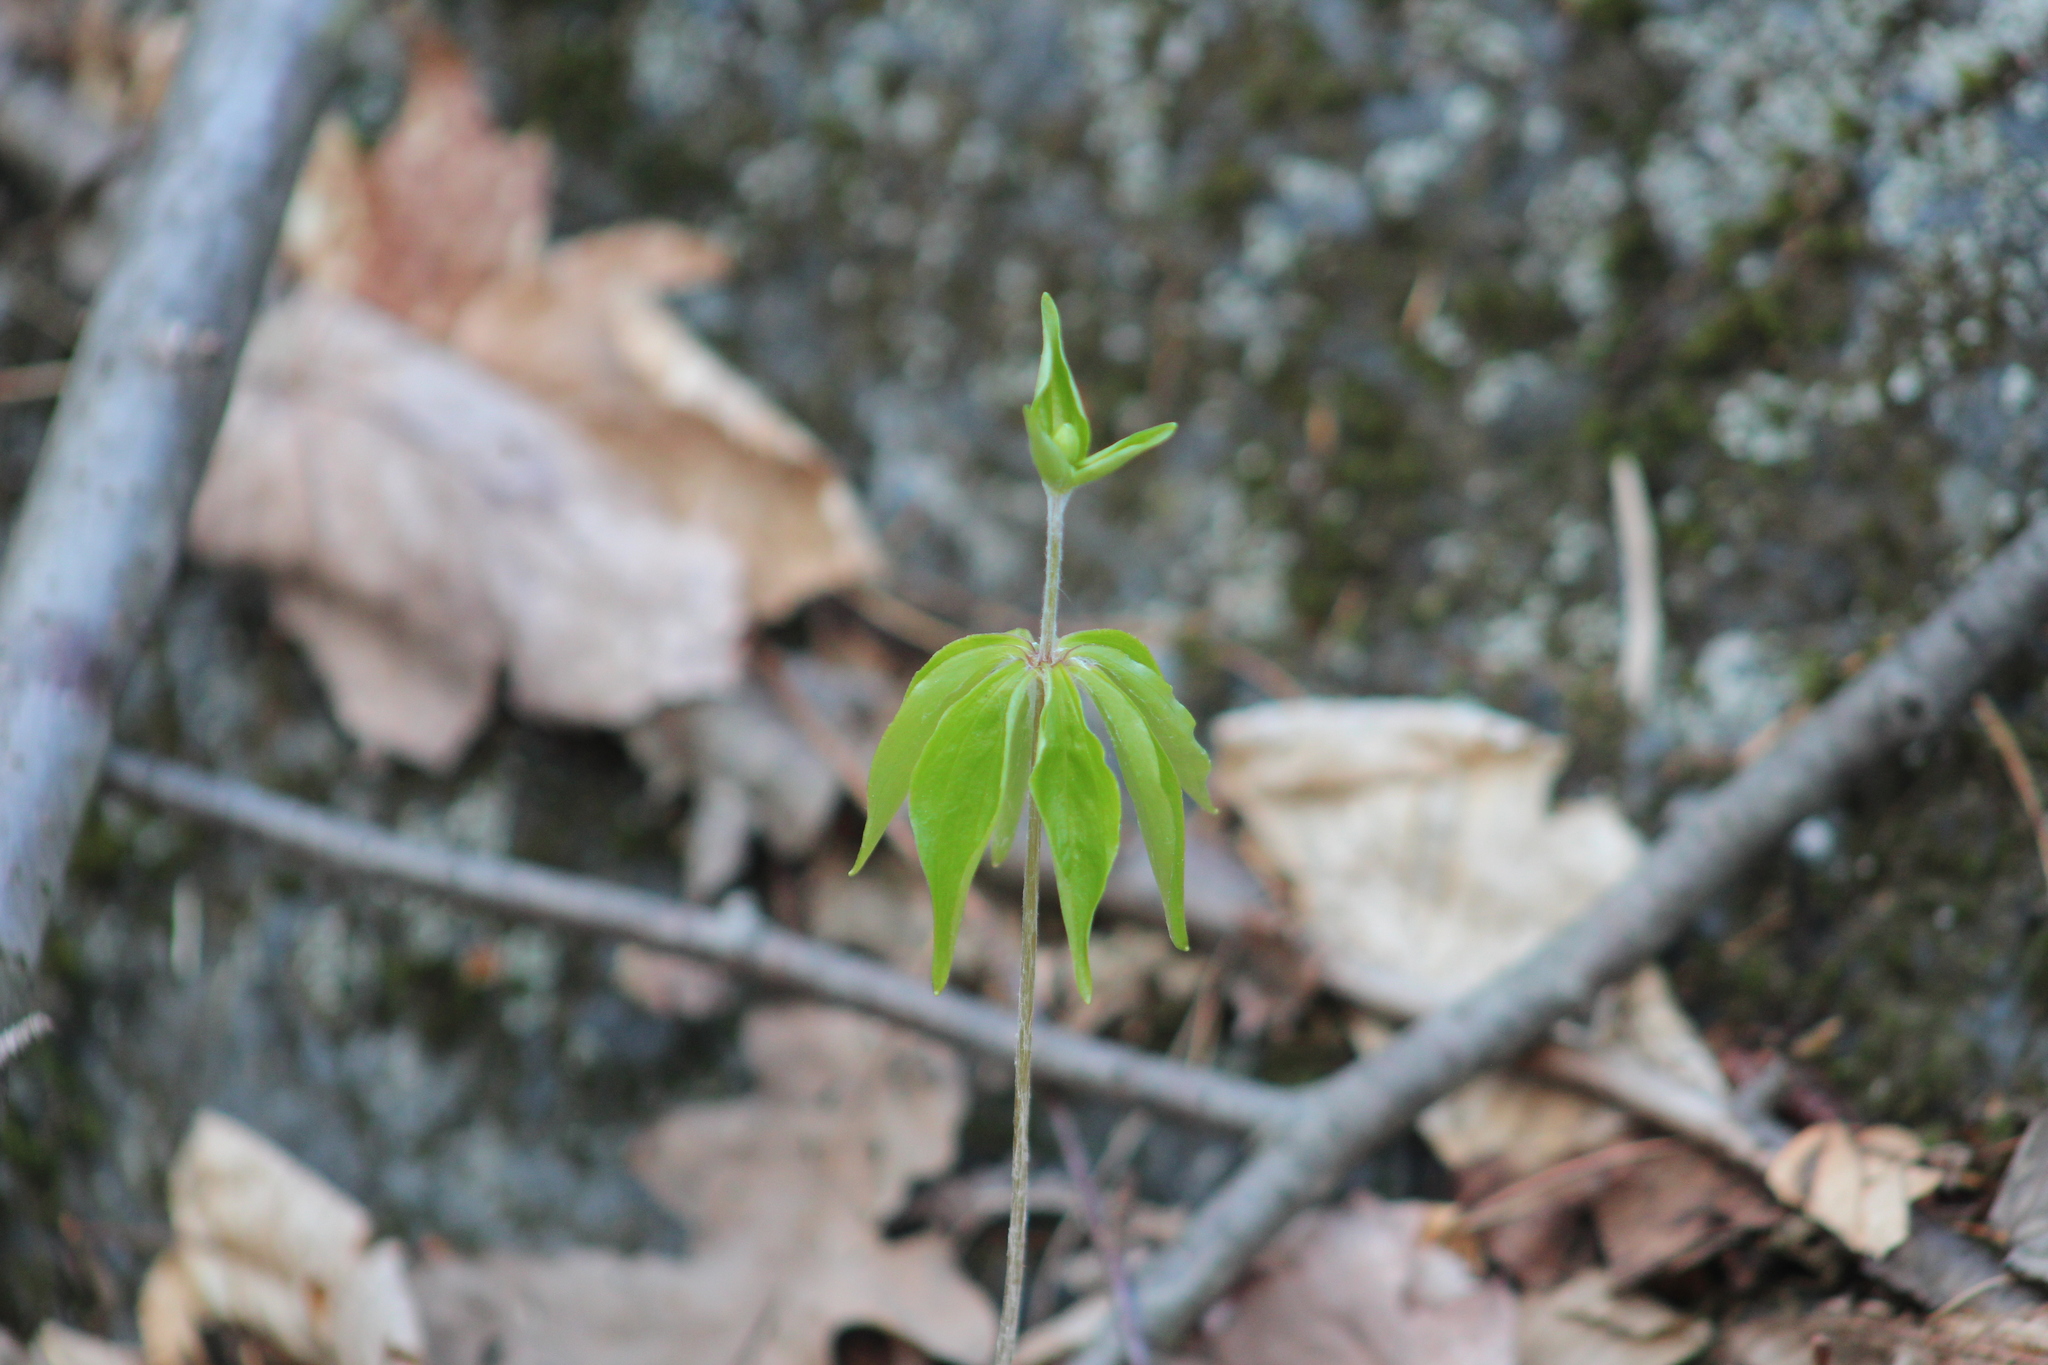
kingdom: Plantae
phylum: Tracheophyta
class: Liliopsida
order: Liliales
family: Liliaceae
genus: Medeola
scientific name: Medeola virginiana
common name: Indian cucumber-root
